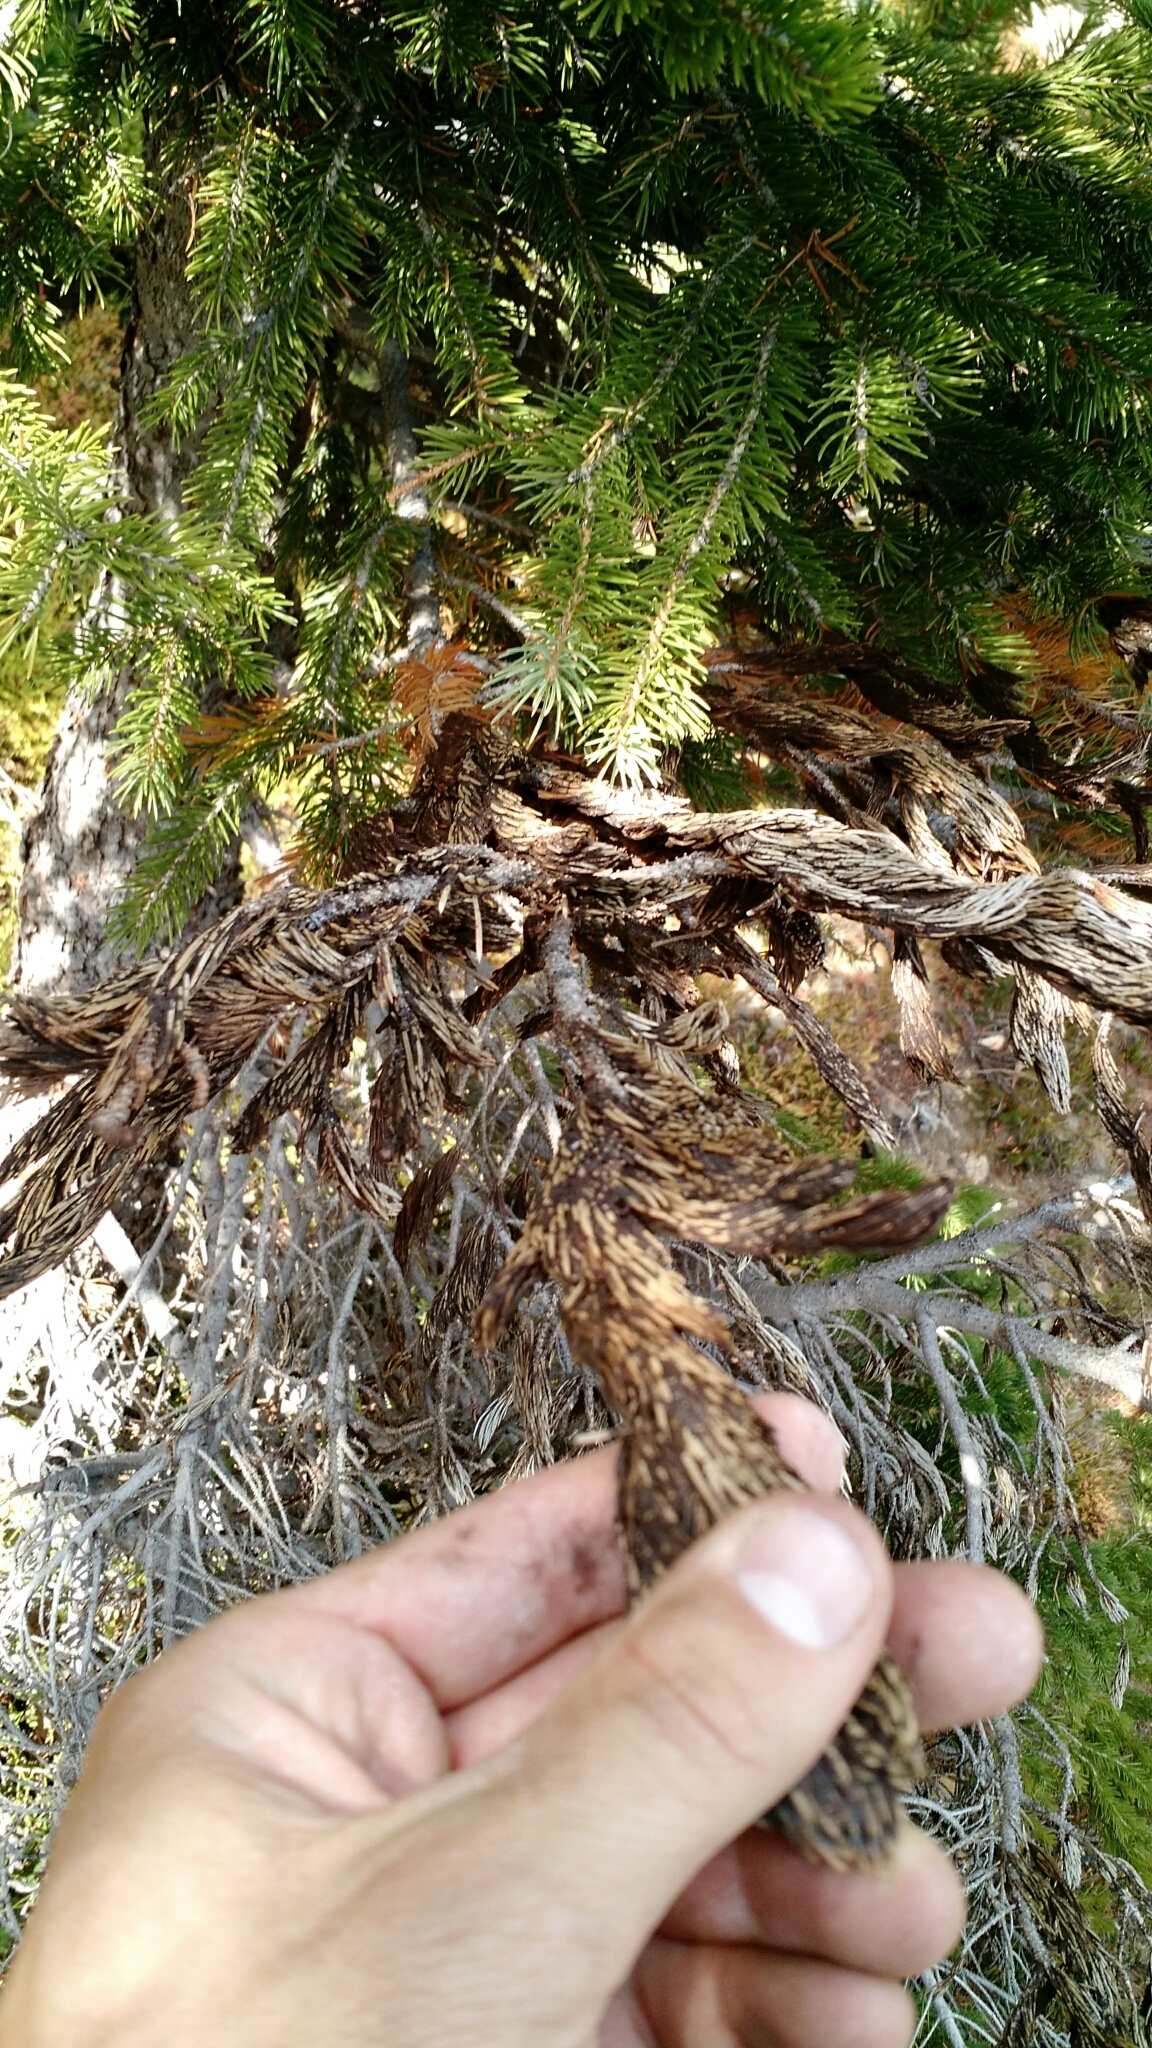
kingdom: Fungi
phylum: Ascomycota
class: Dothideomycetes
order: Dothideales
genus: Neopeckia
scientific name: Neopeckia coulteri
